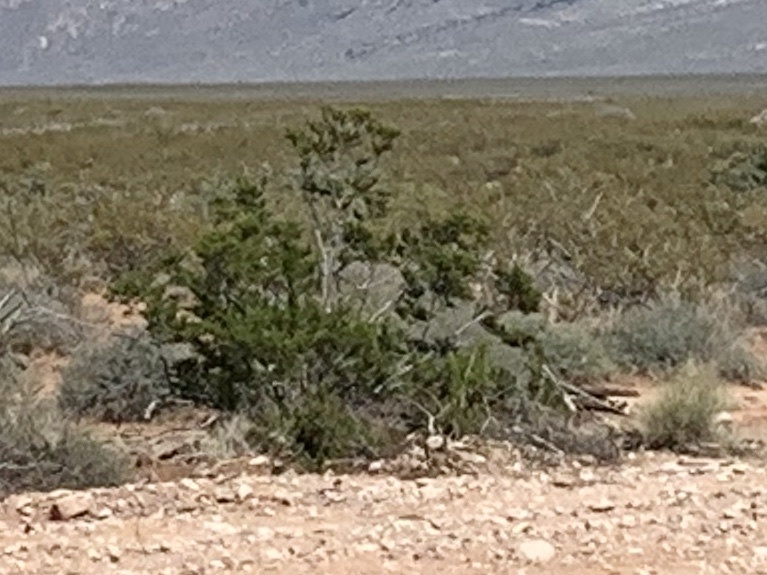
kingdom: Plantae
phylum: Tracheophyta
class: Magnoliopsida
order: Zygophyllales
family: Zygophyllaceae
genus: Larrea
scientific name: Larrea tridentata
